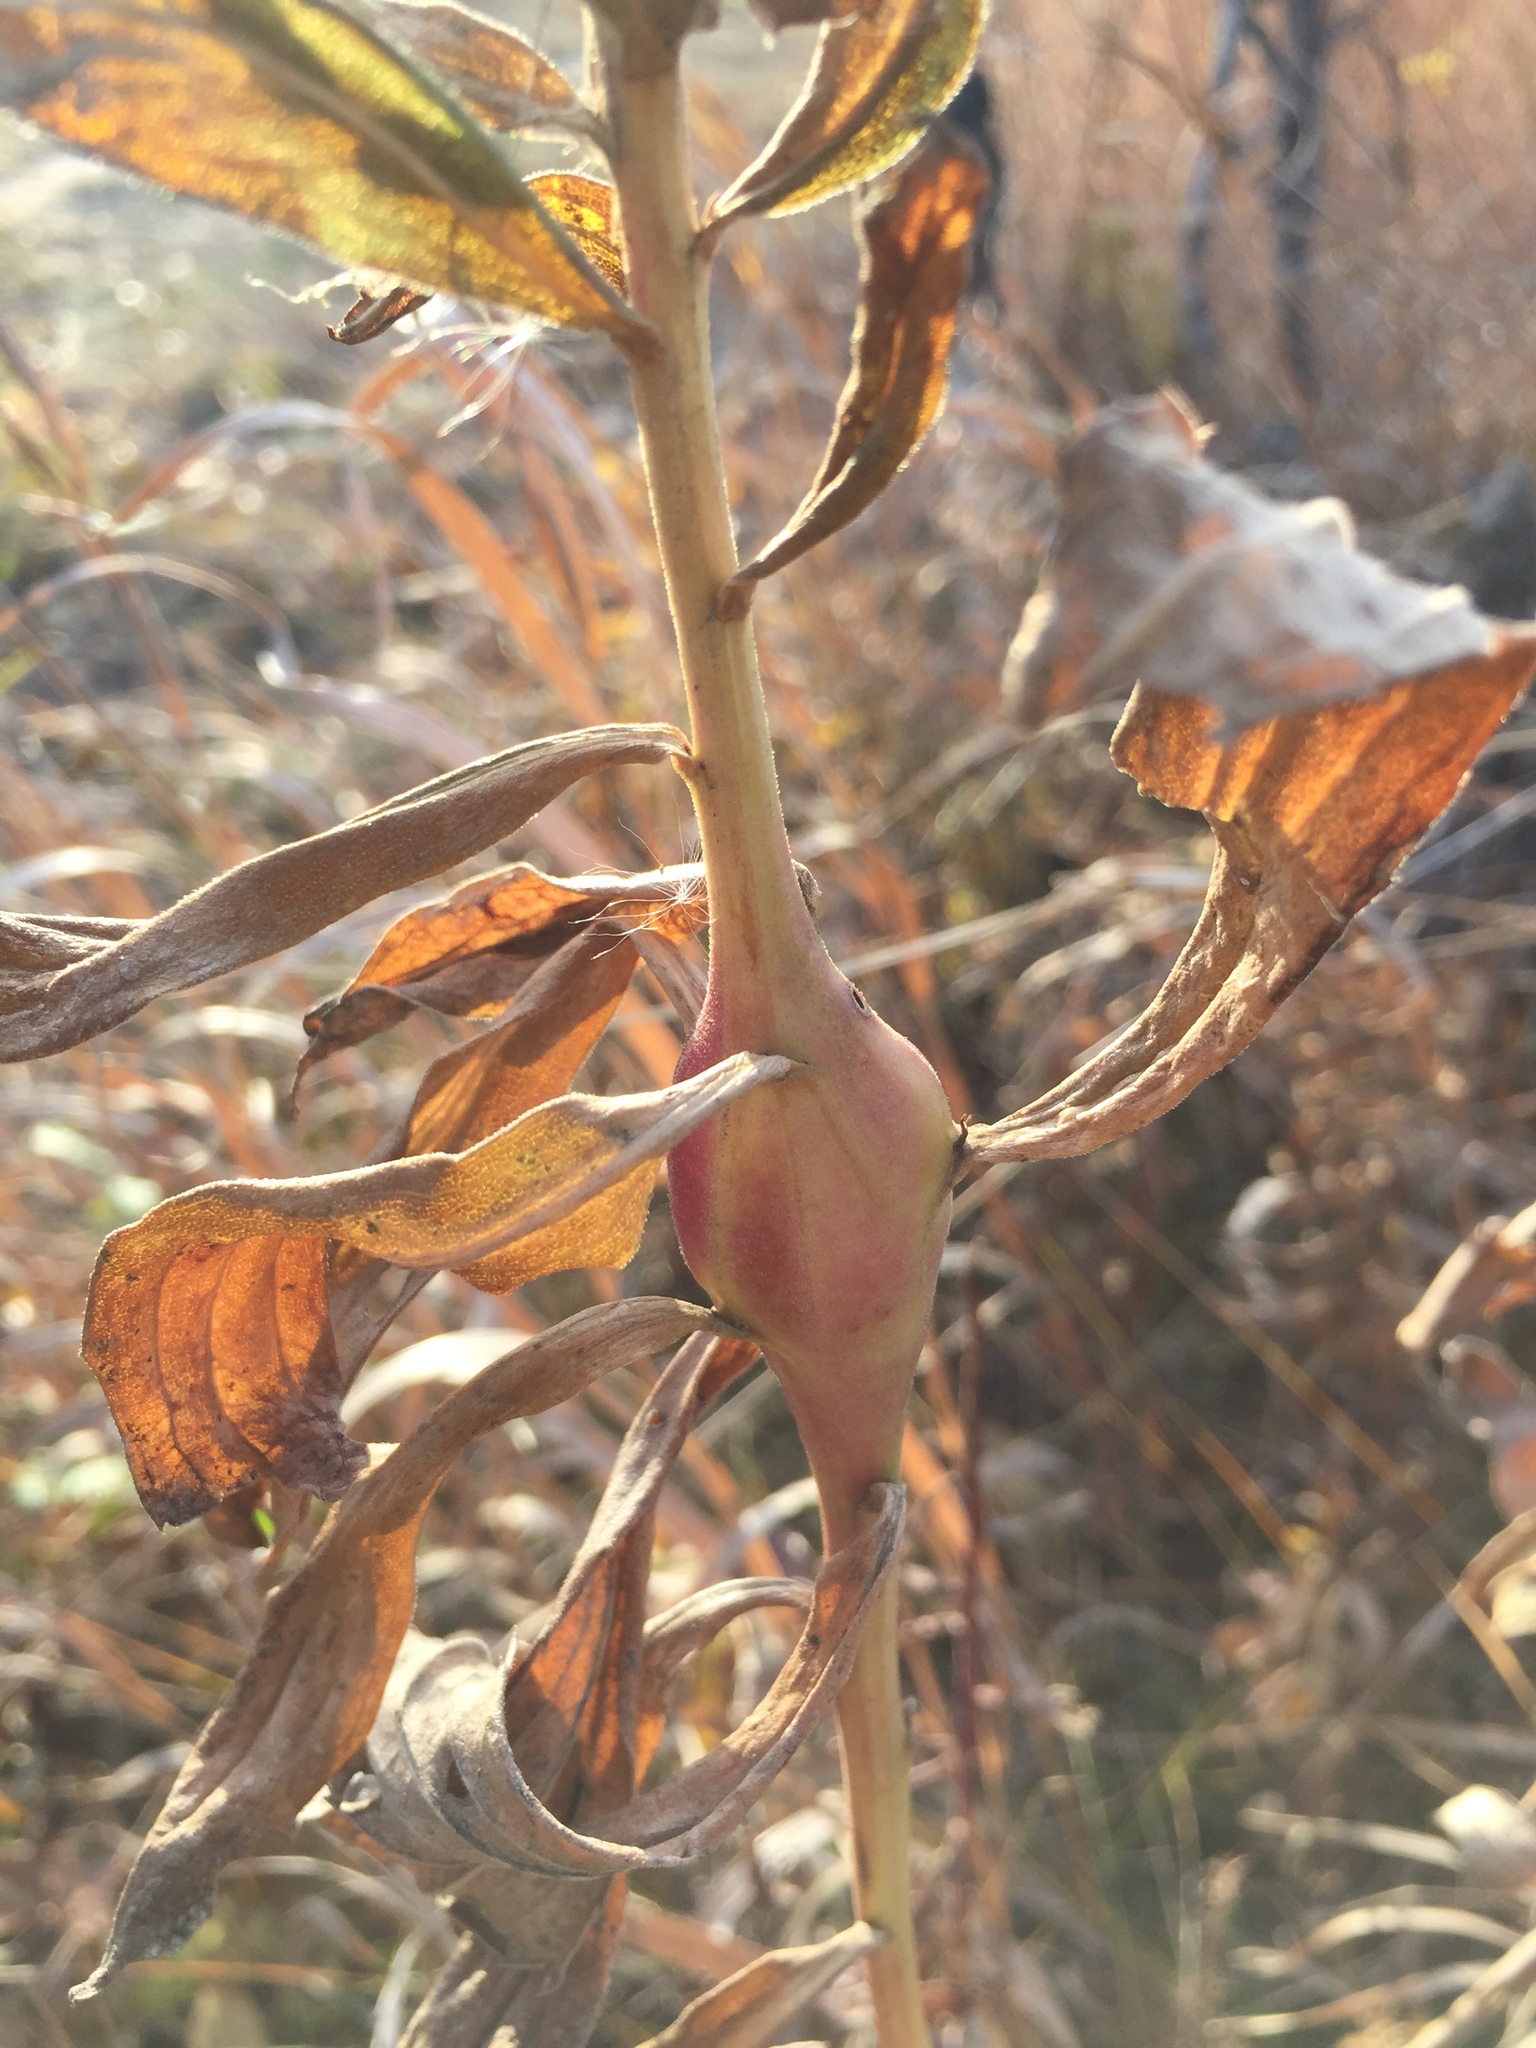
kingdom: Animalia
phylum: Arthropoda
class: Insecta
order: Lepidoptera
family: Gelechiidae
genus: Gnorimoschema
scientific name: Gnorimoschema gallaesolidaginis
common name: Goldenrod elliptical-gall moth
